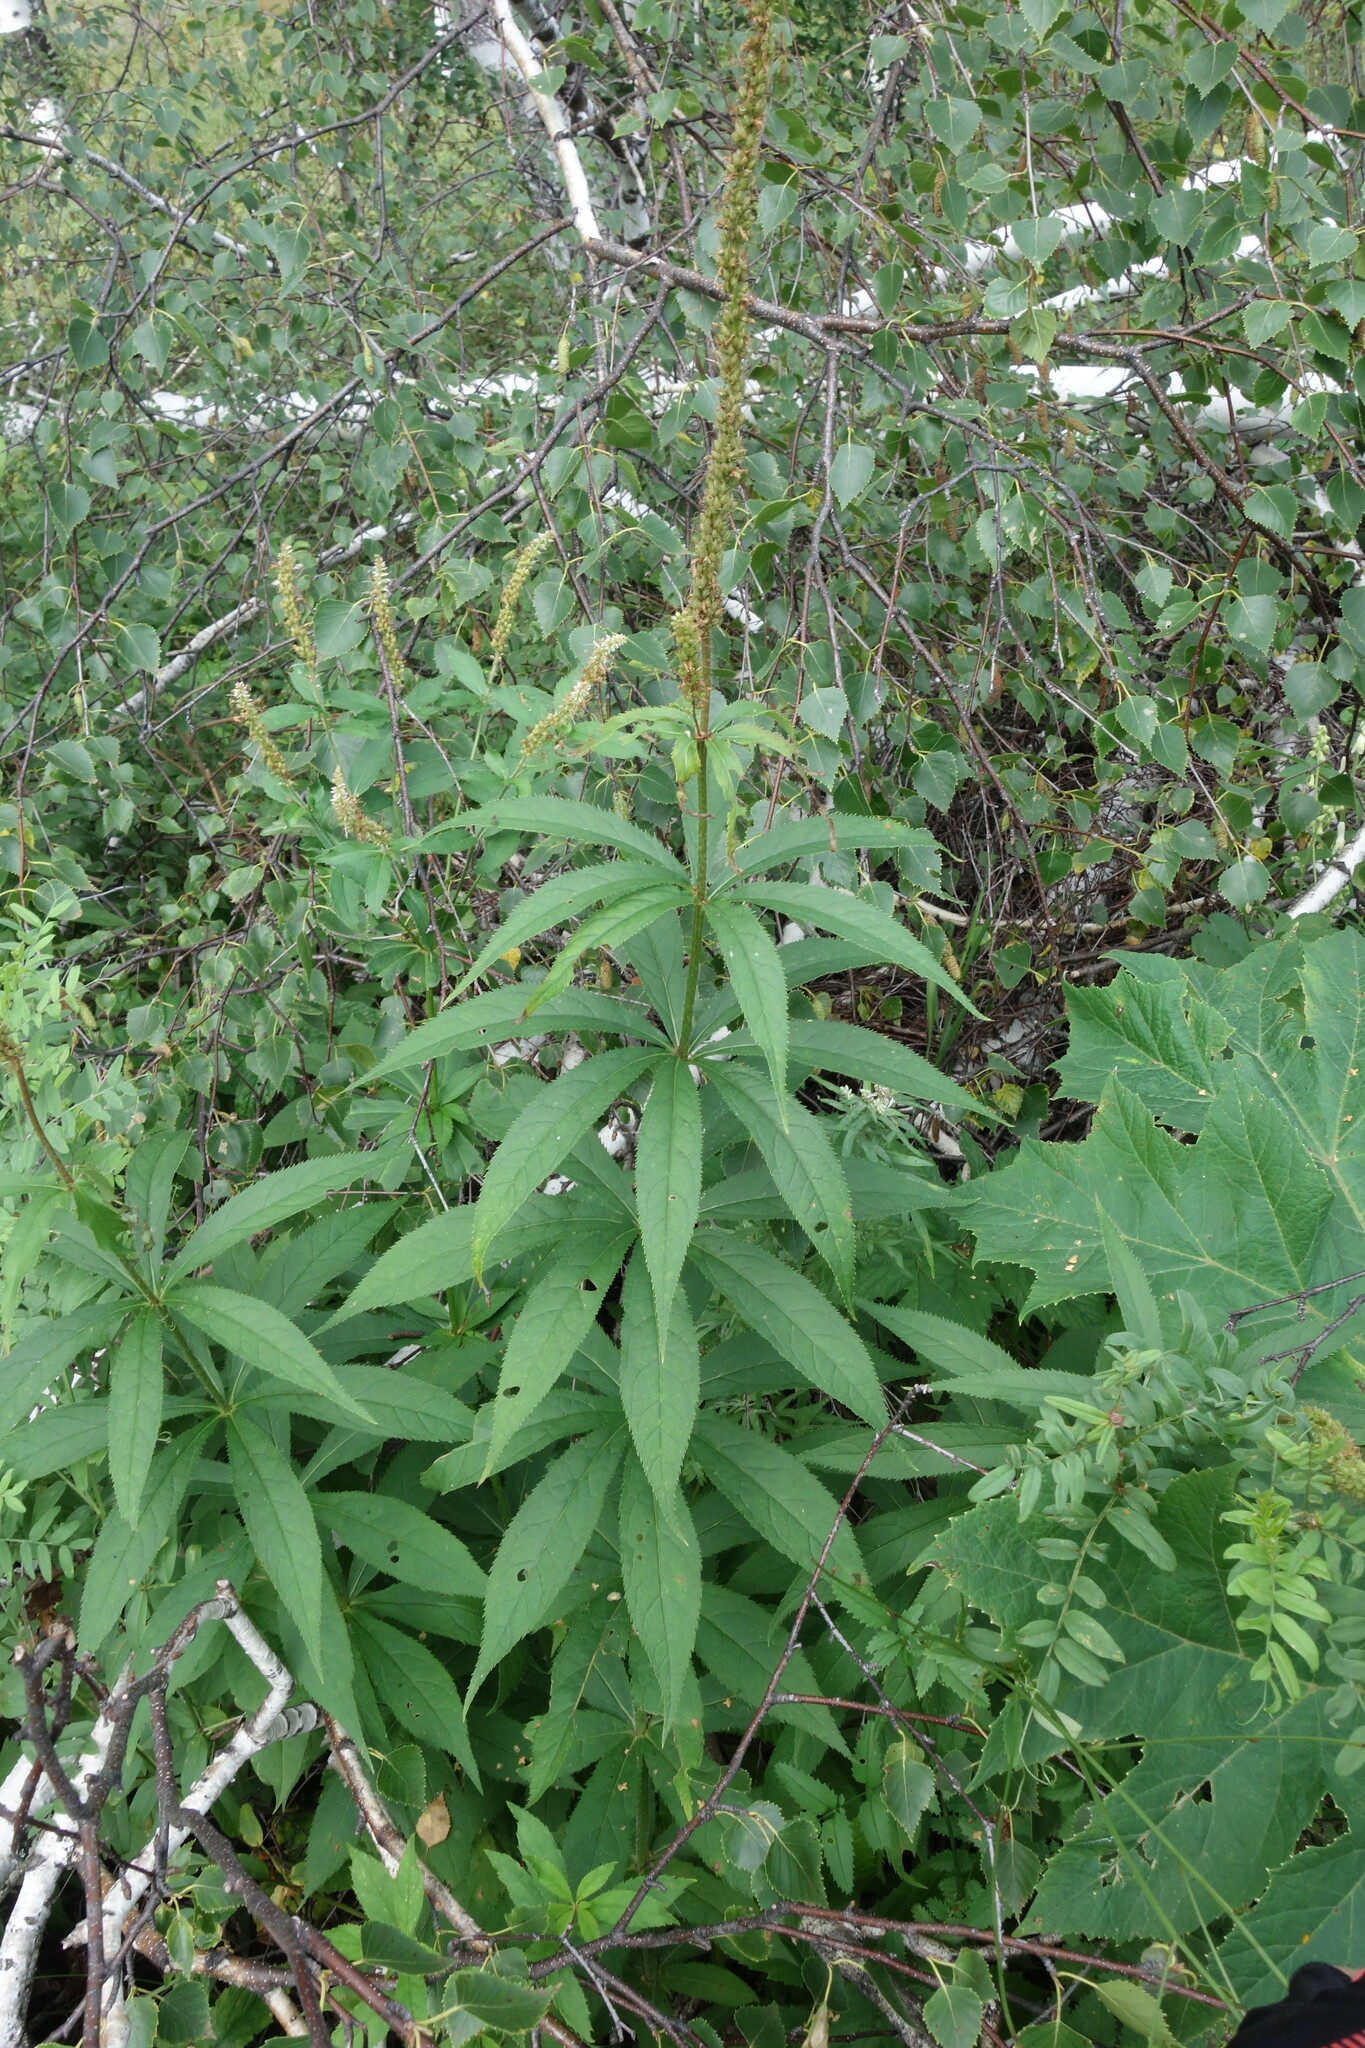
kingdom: Plantae
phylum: Tracheophyta
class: Magnoliopsida
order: Lamiales
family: Plantaginaceae
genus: Veronicastrum
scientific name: Veronicastrum sibiricum
